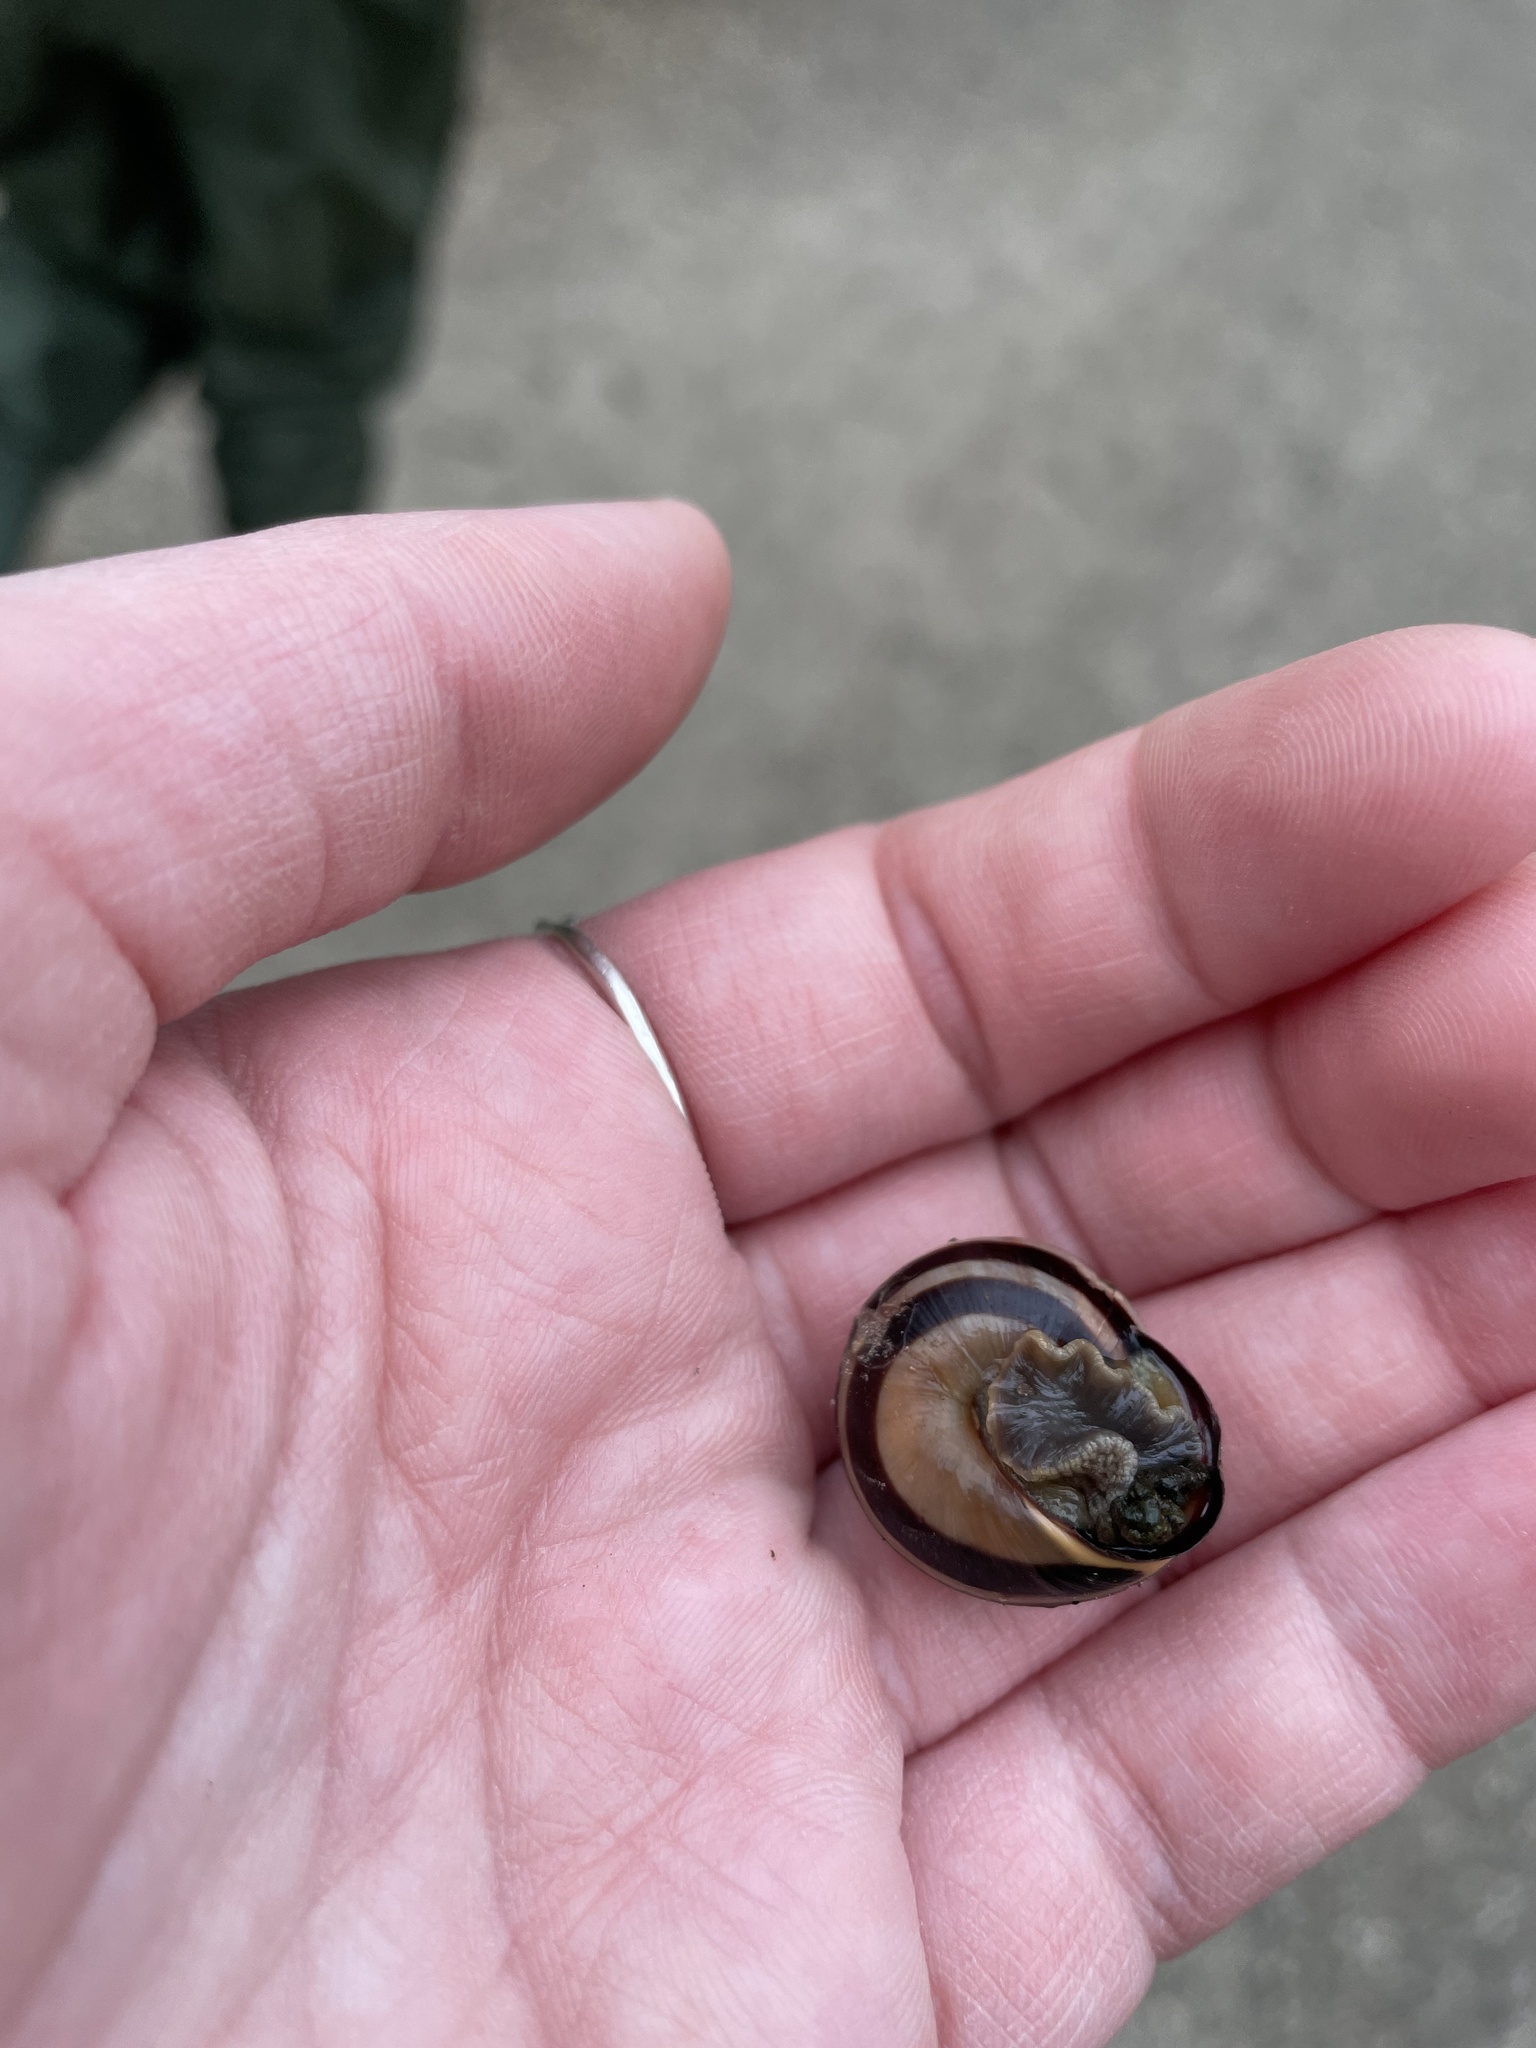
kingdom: Animalia
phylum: Mollusca
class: Gastropoda
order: Stylommatophora
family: Helicidae
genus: Cepaea
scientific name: Cepaea nemoralis
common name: Grovesnail
